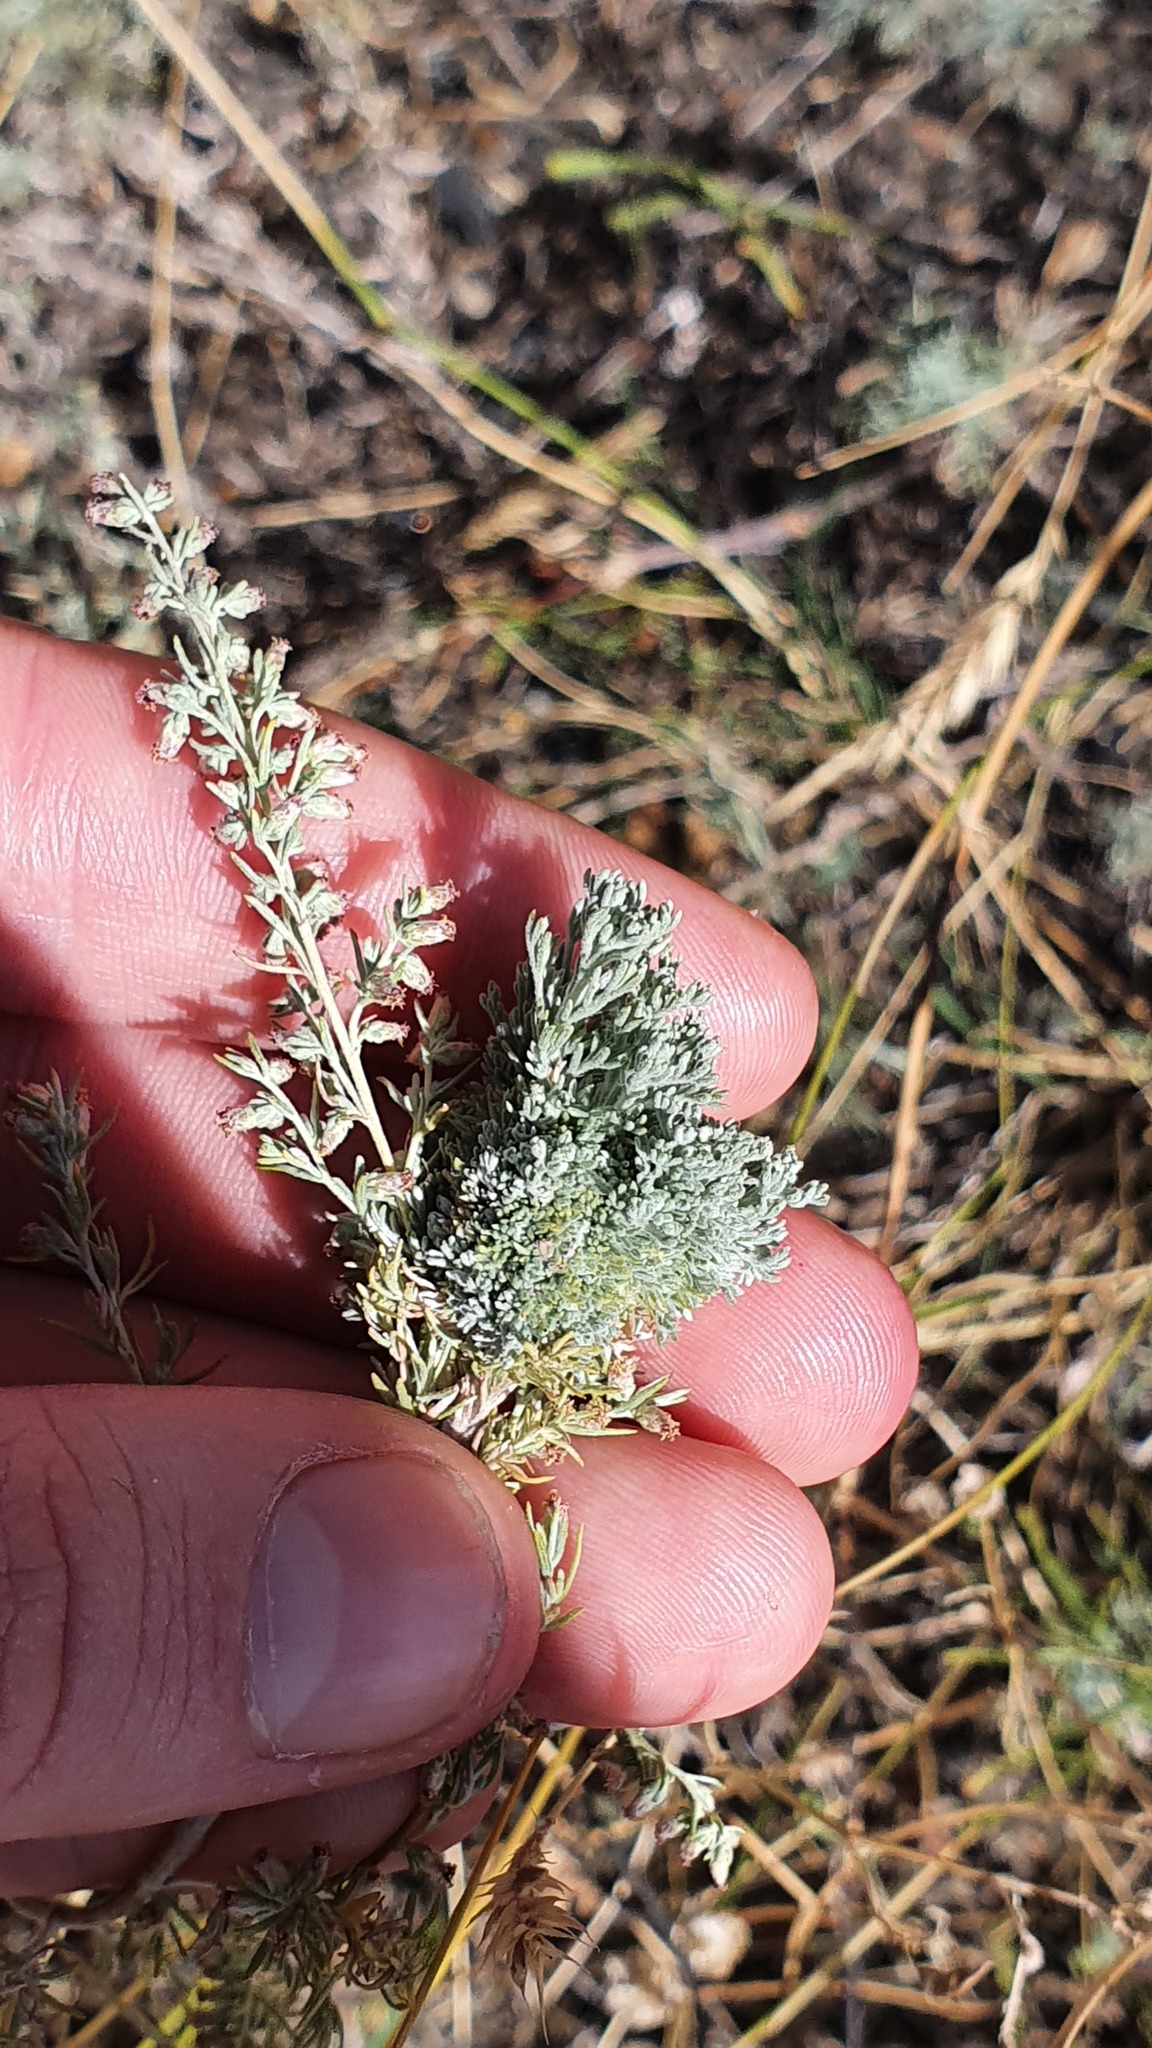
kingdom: Plantae
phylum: Tracheophyta
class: Magnoliopsida
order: Asterales
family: Asteraceae
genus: Artemisia
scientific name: Artemisia absinthium
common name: Wormwood
